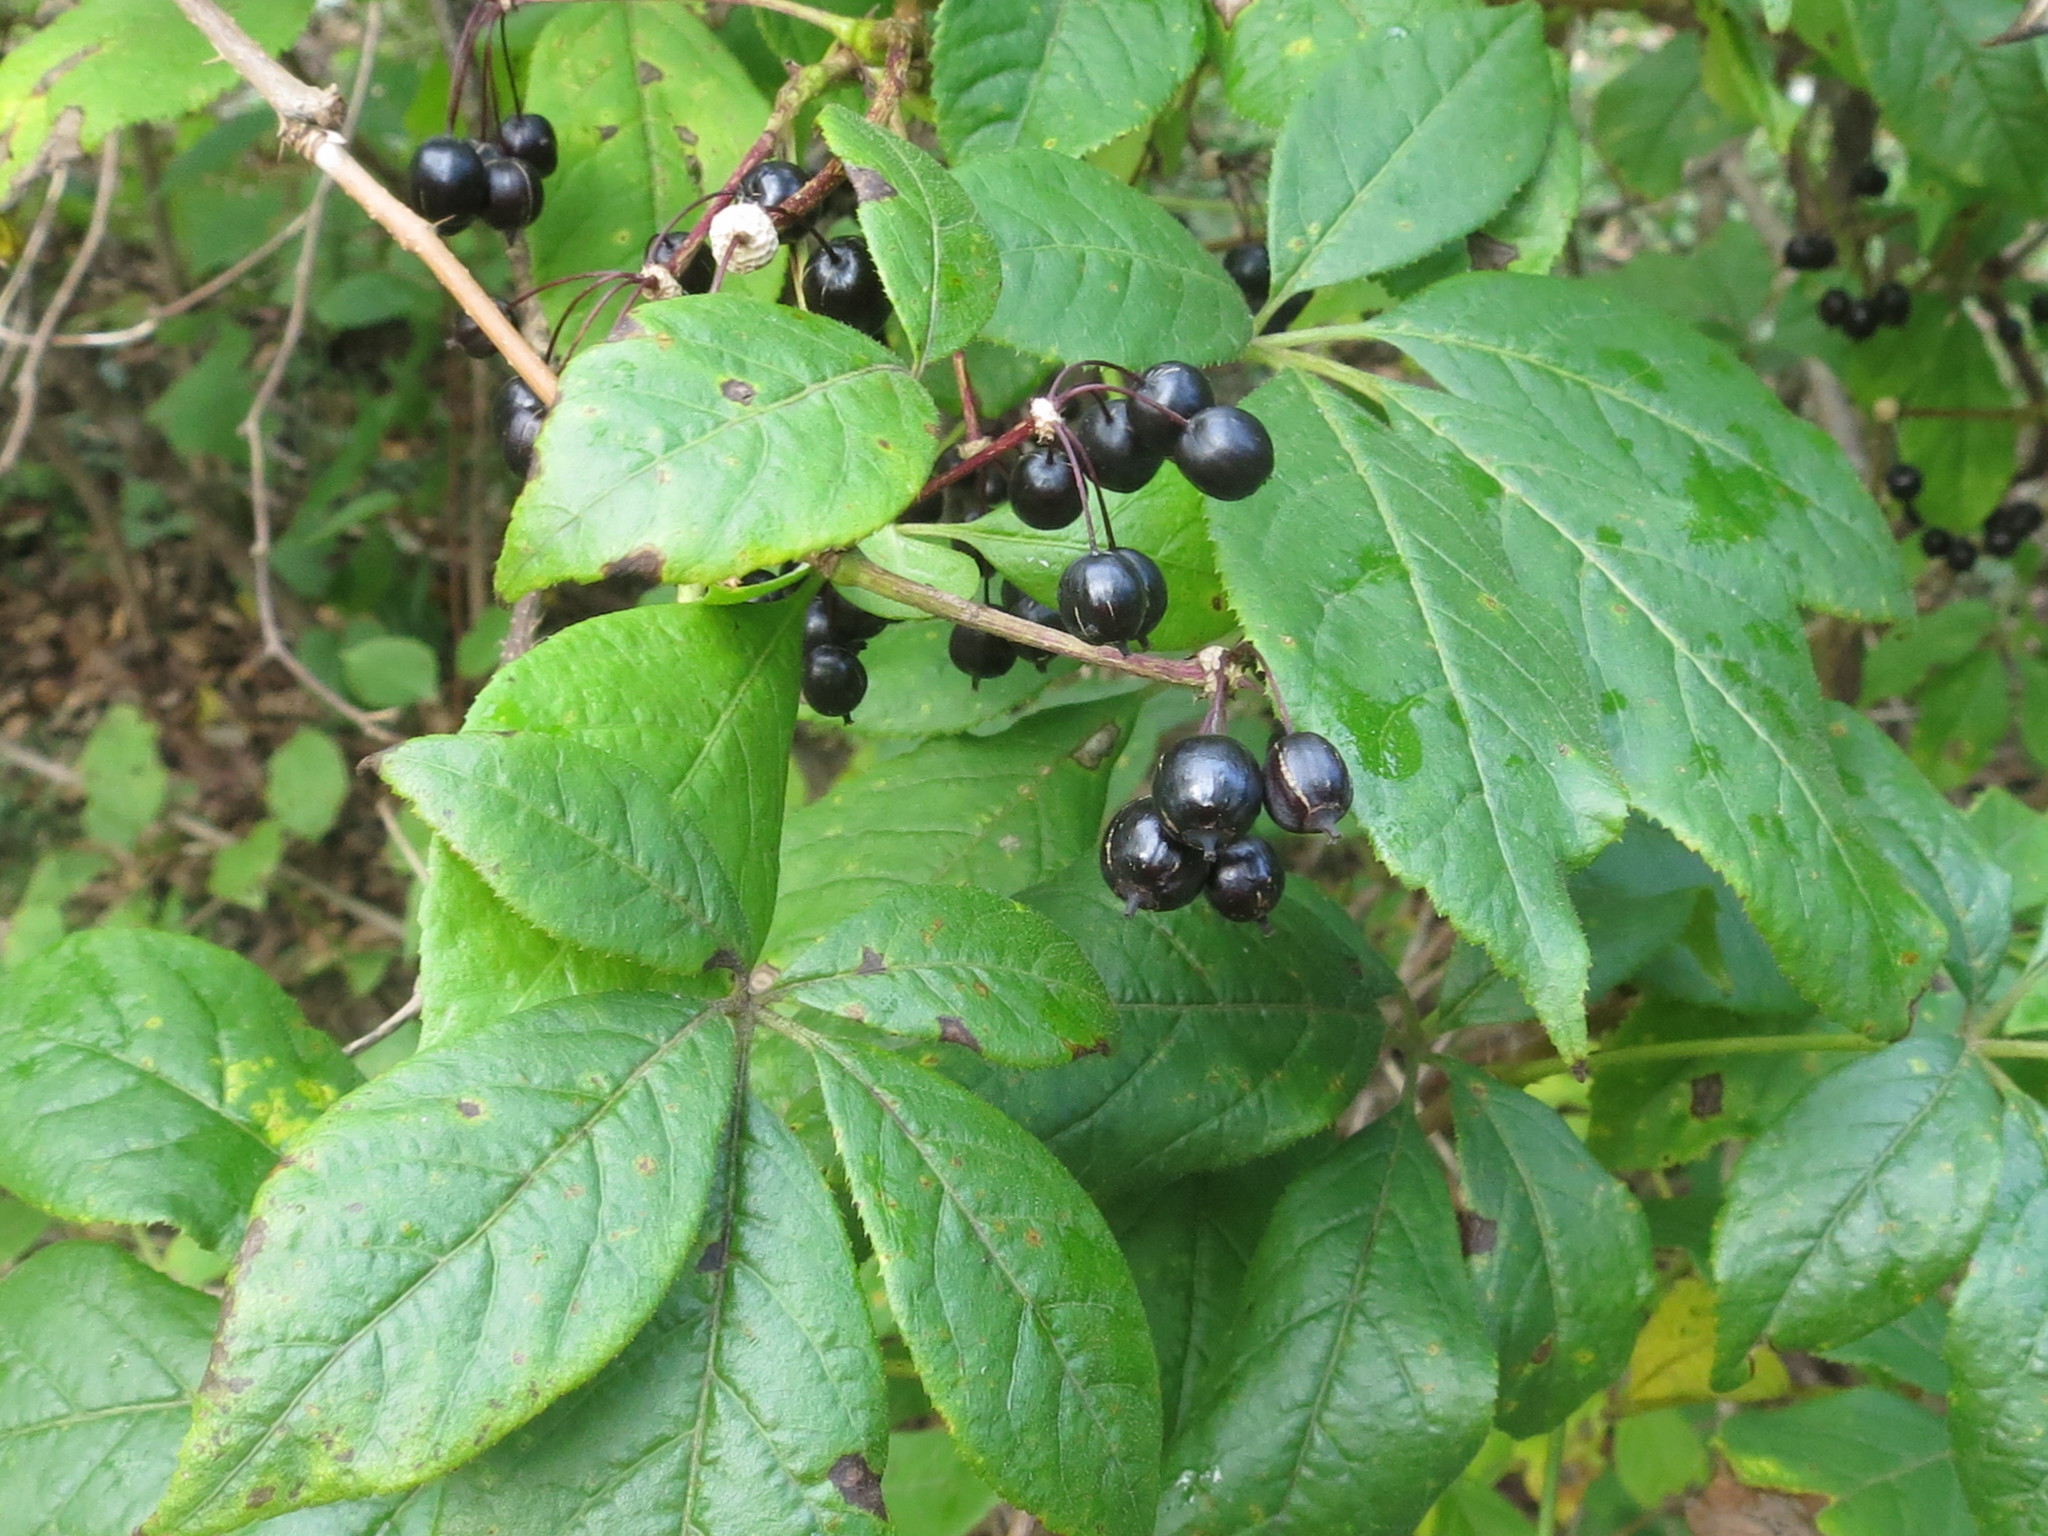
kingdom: Plantae
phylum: Tracheophyta
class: Magnoliopsida
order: Apiales
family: Araliaceae
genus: Eleutherococcus
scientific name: Eleutherococcus senticosus
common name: Siberian-ginseng
